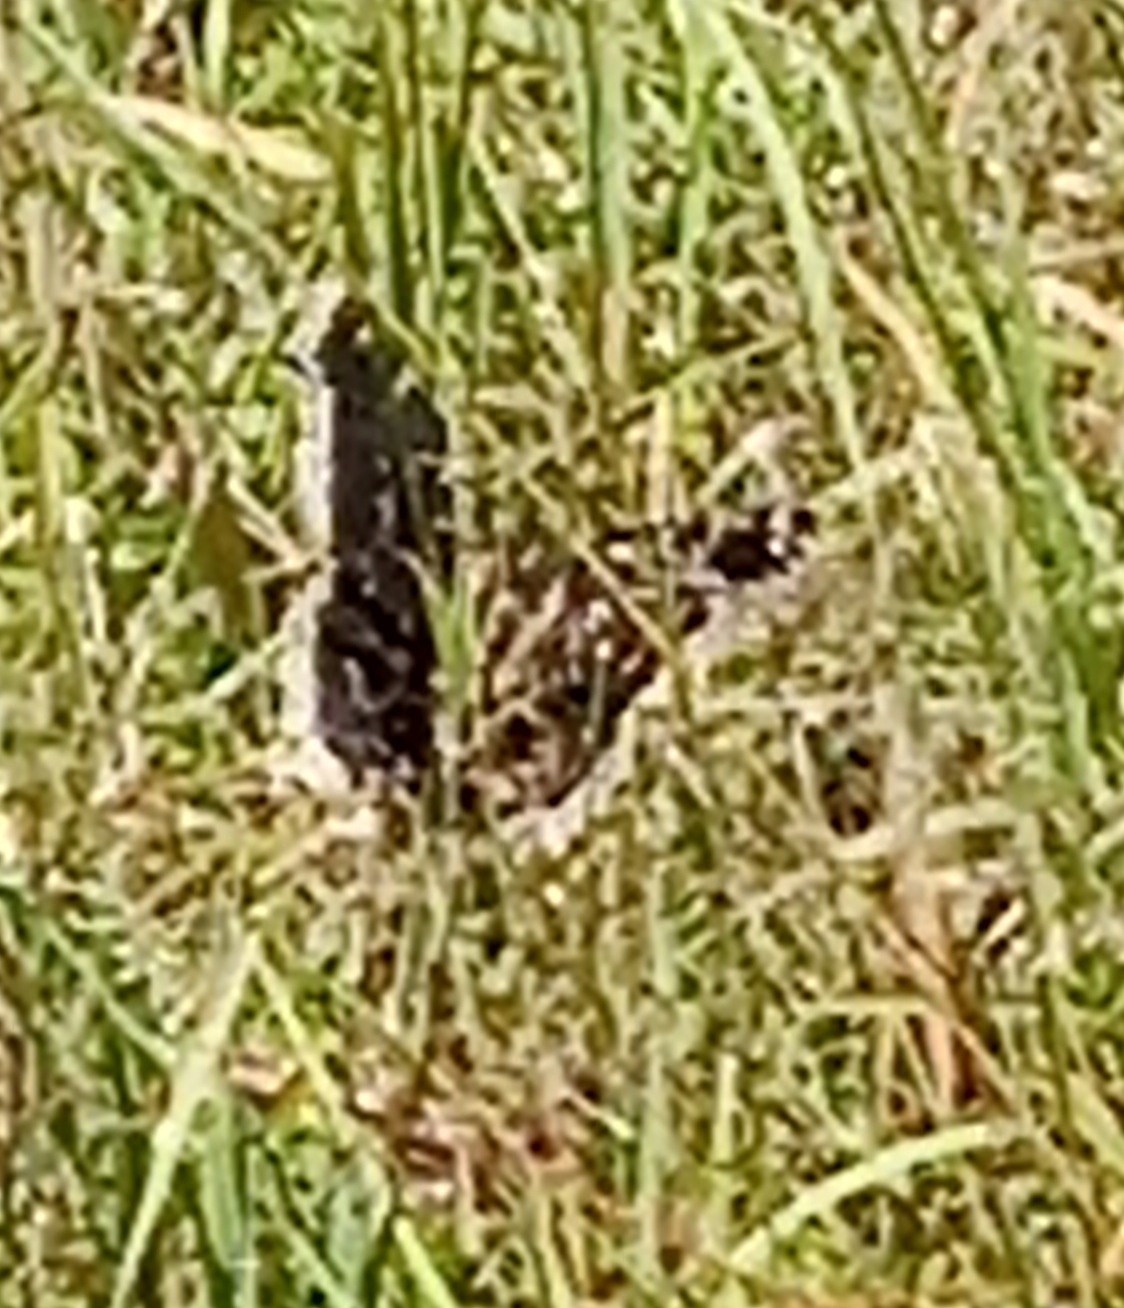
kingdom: Animalia
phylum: Arthropoda
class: Insecta
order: Lepidoptera
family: Nymphalidae
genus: Nymphalis
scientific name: Nymphalis antiopa
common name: Camberwell beauty
